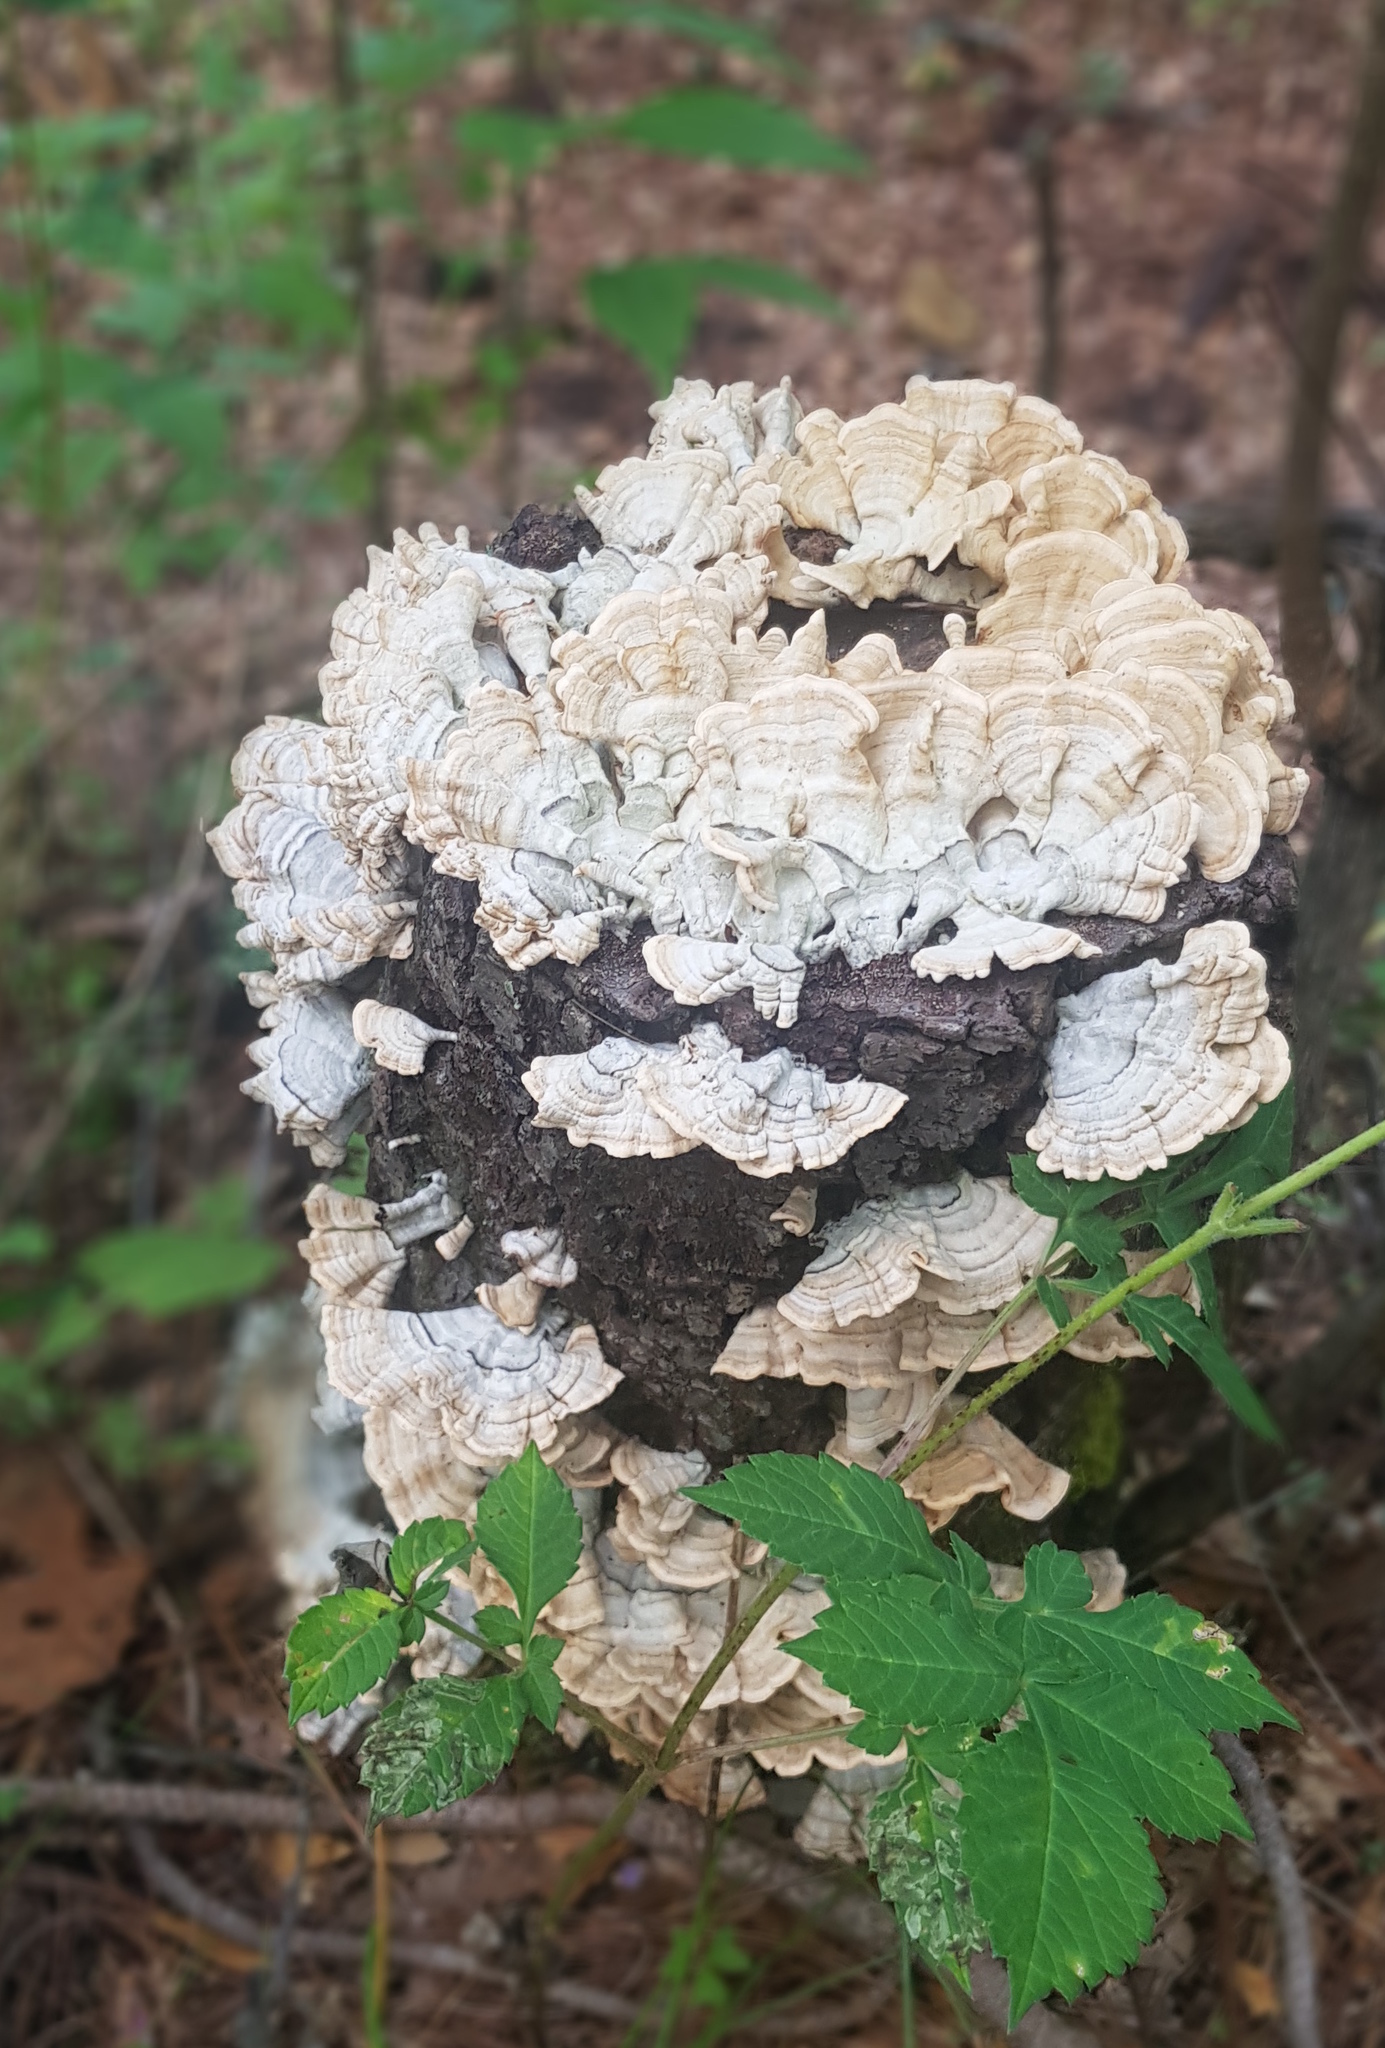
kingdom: Fungi
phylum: Basidiomycota
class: Agaricomycetes
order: Polyporales
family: Polyporaceae
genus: Trametes
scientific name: Trametes villosa
